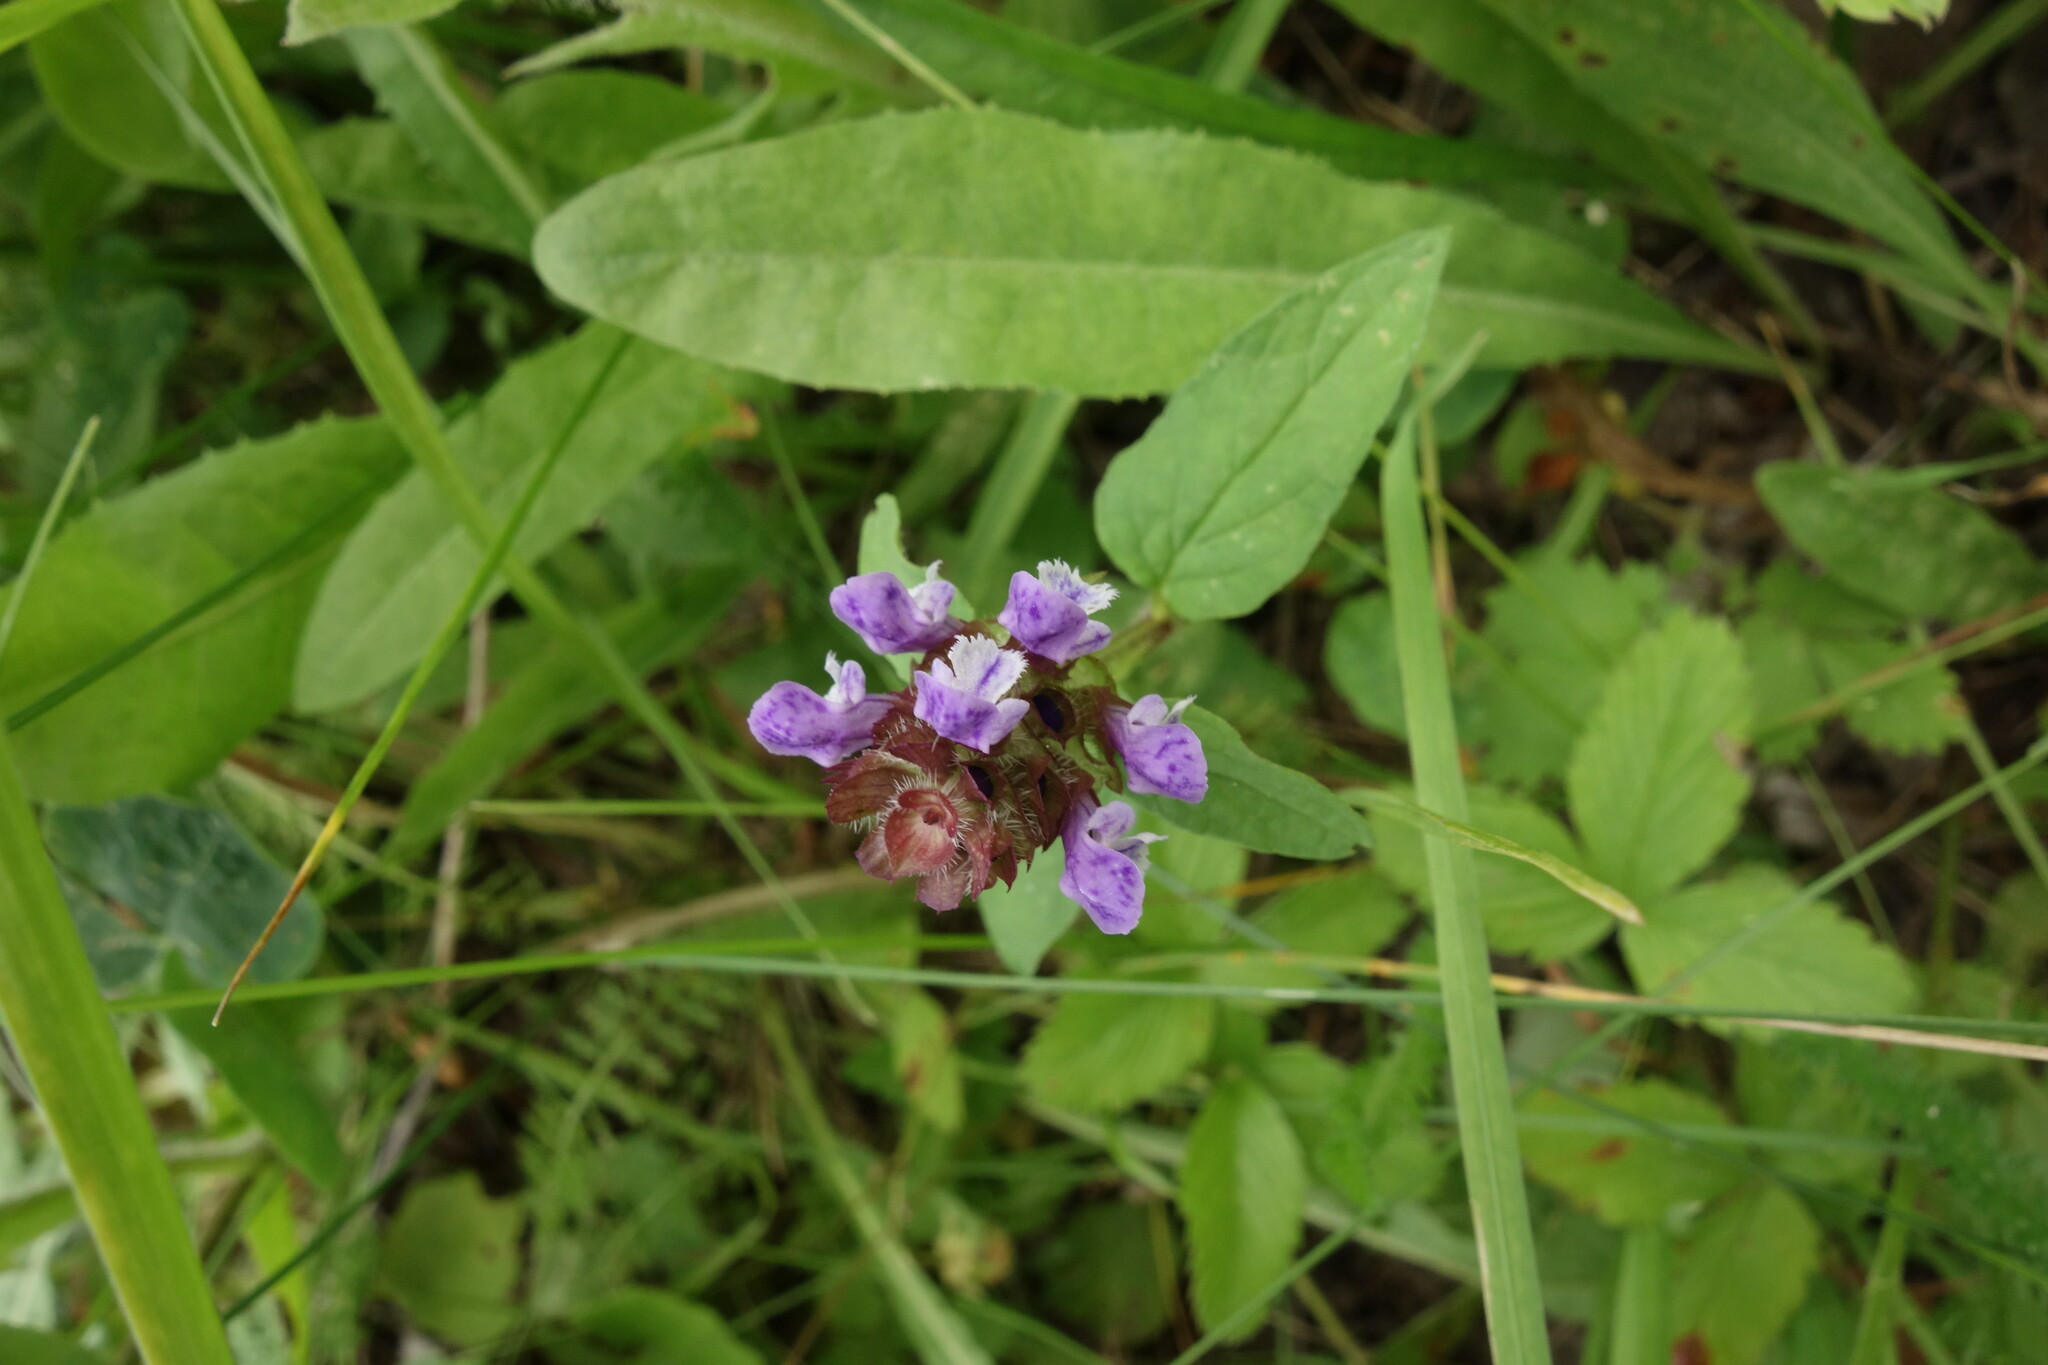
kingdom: Plantae
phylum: Tracheophyta
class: Magnoliopsida
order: Lamiales
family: Lamiaceae
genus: Prunella
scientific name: Prunella vulgaris
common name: Heal-all
